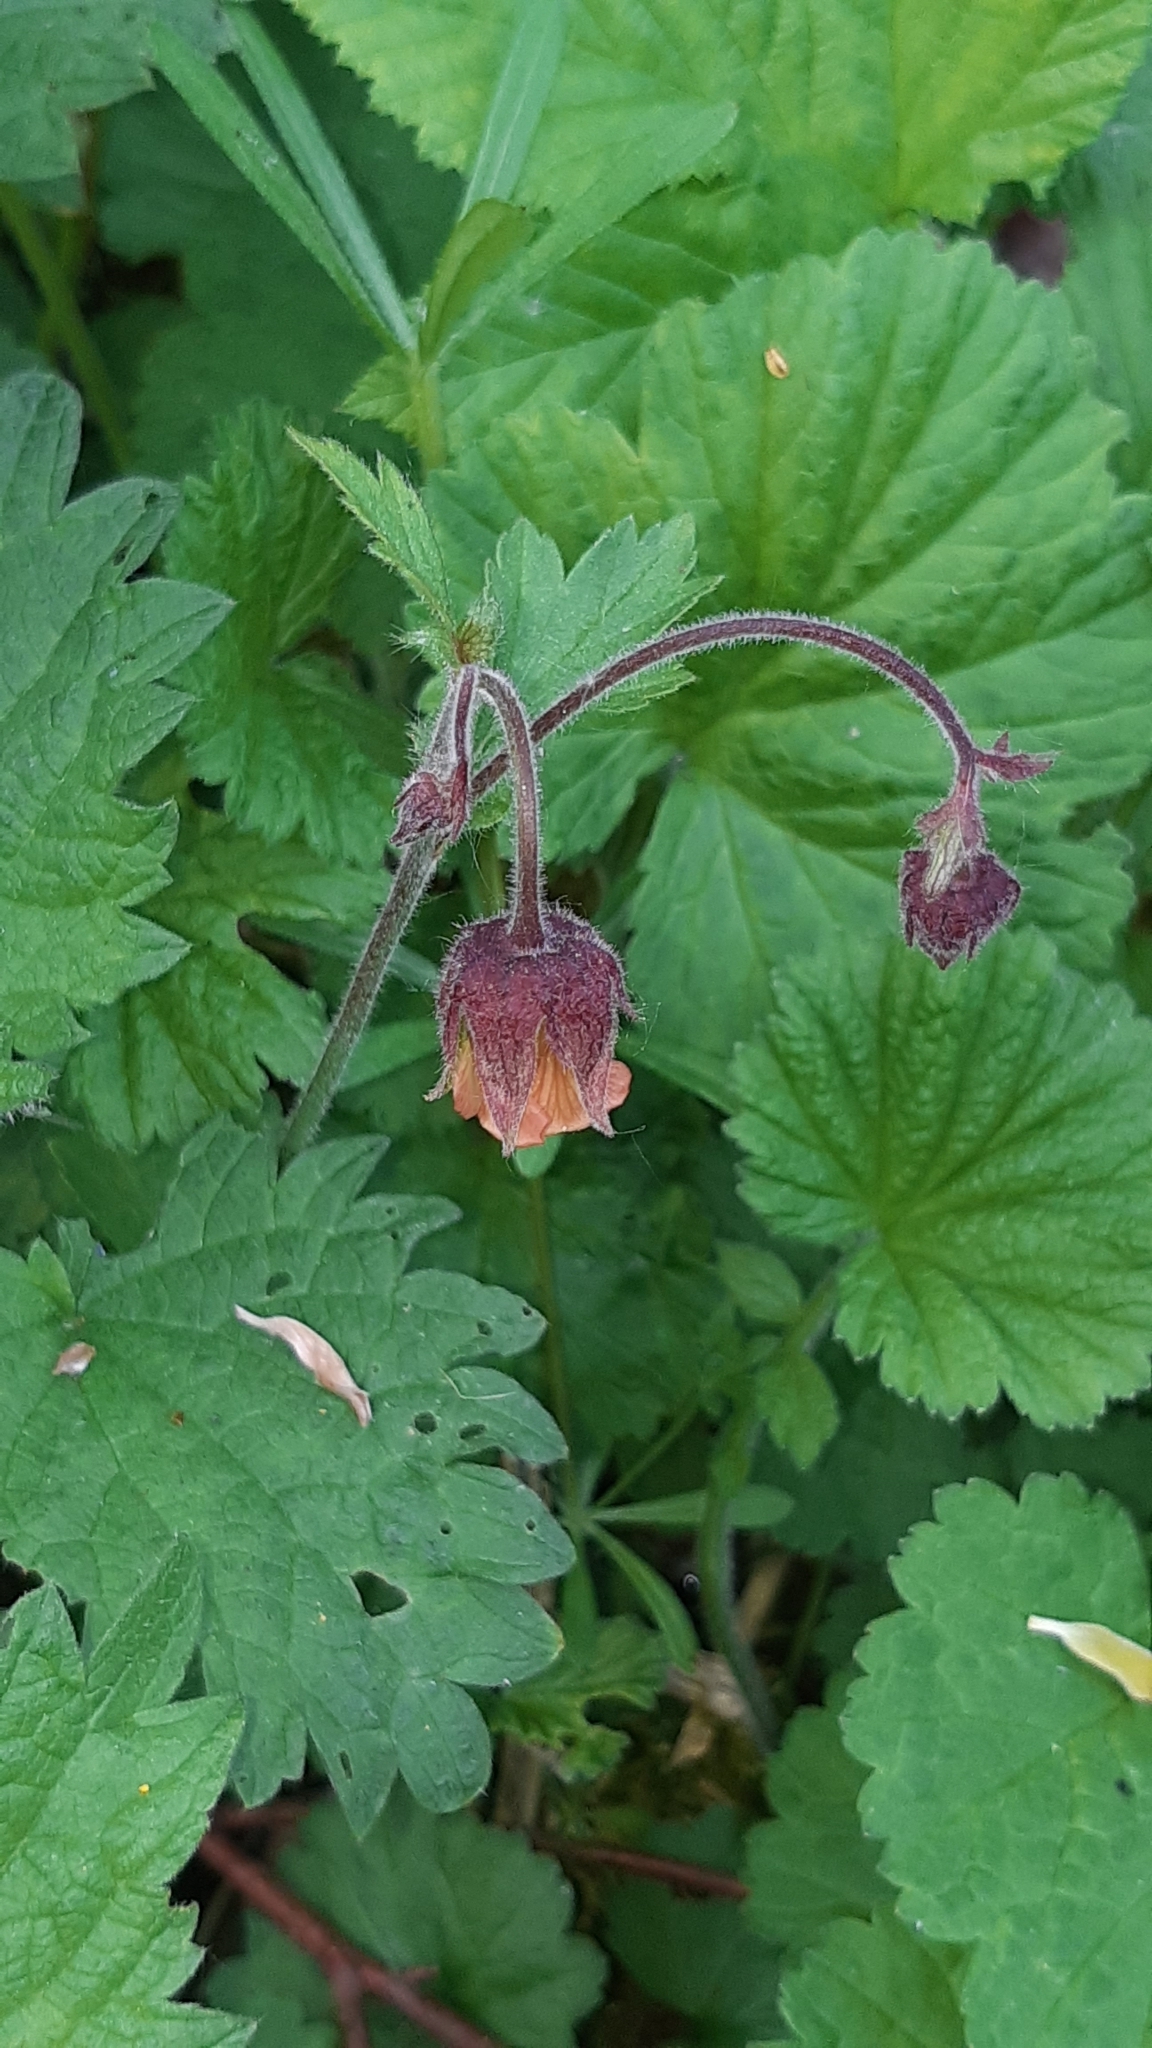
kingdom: Plantae
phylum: Tracheophyta
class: Magnoliopsida
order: Rosales
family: Rosaceae
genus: Geum
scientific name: Geum rivale
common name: Water avens
